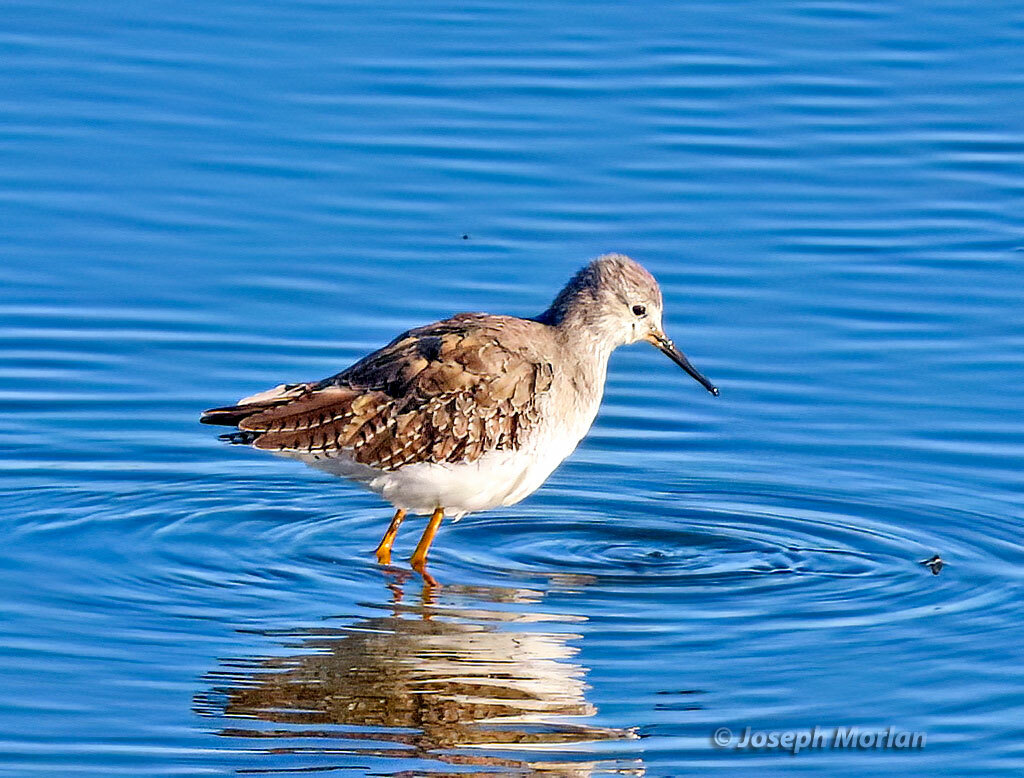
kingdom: Animalia
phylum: Chordata
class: Aves
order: Charadriiformes
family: Scolopacidae
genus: Tringa
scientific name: Tringa flavipes
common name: Lesser yellowlegs
